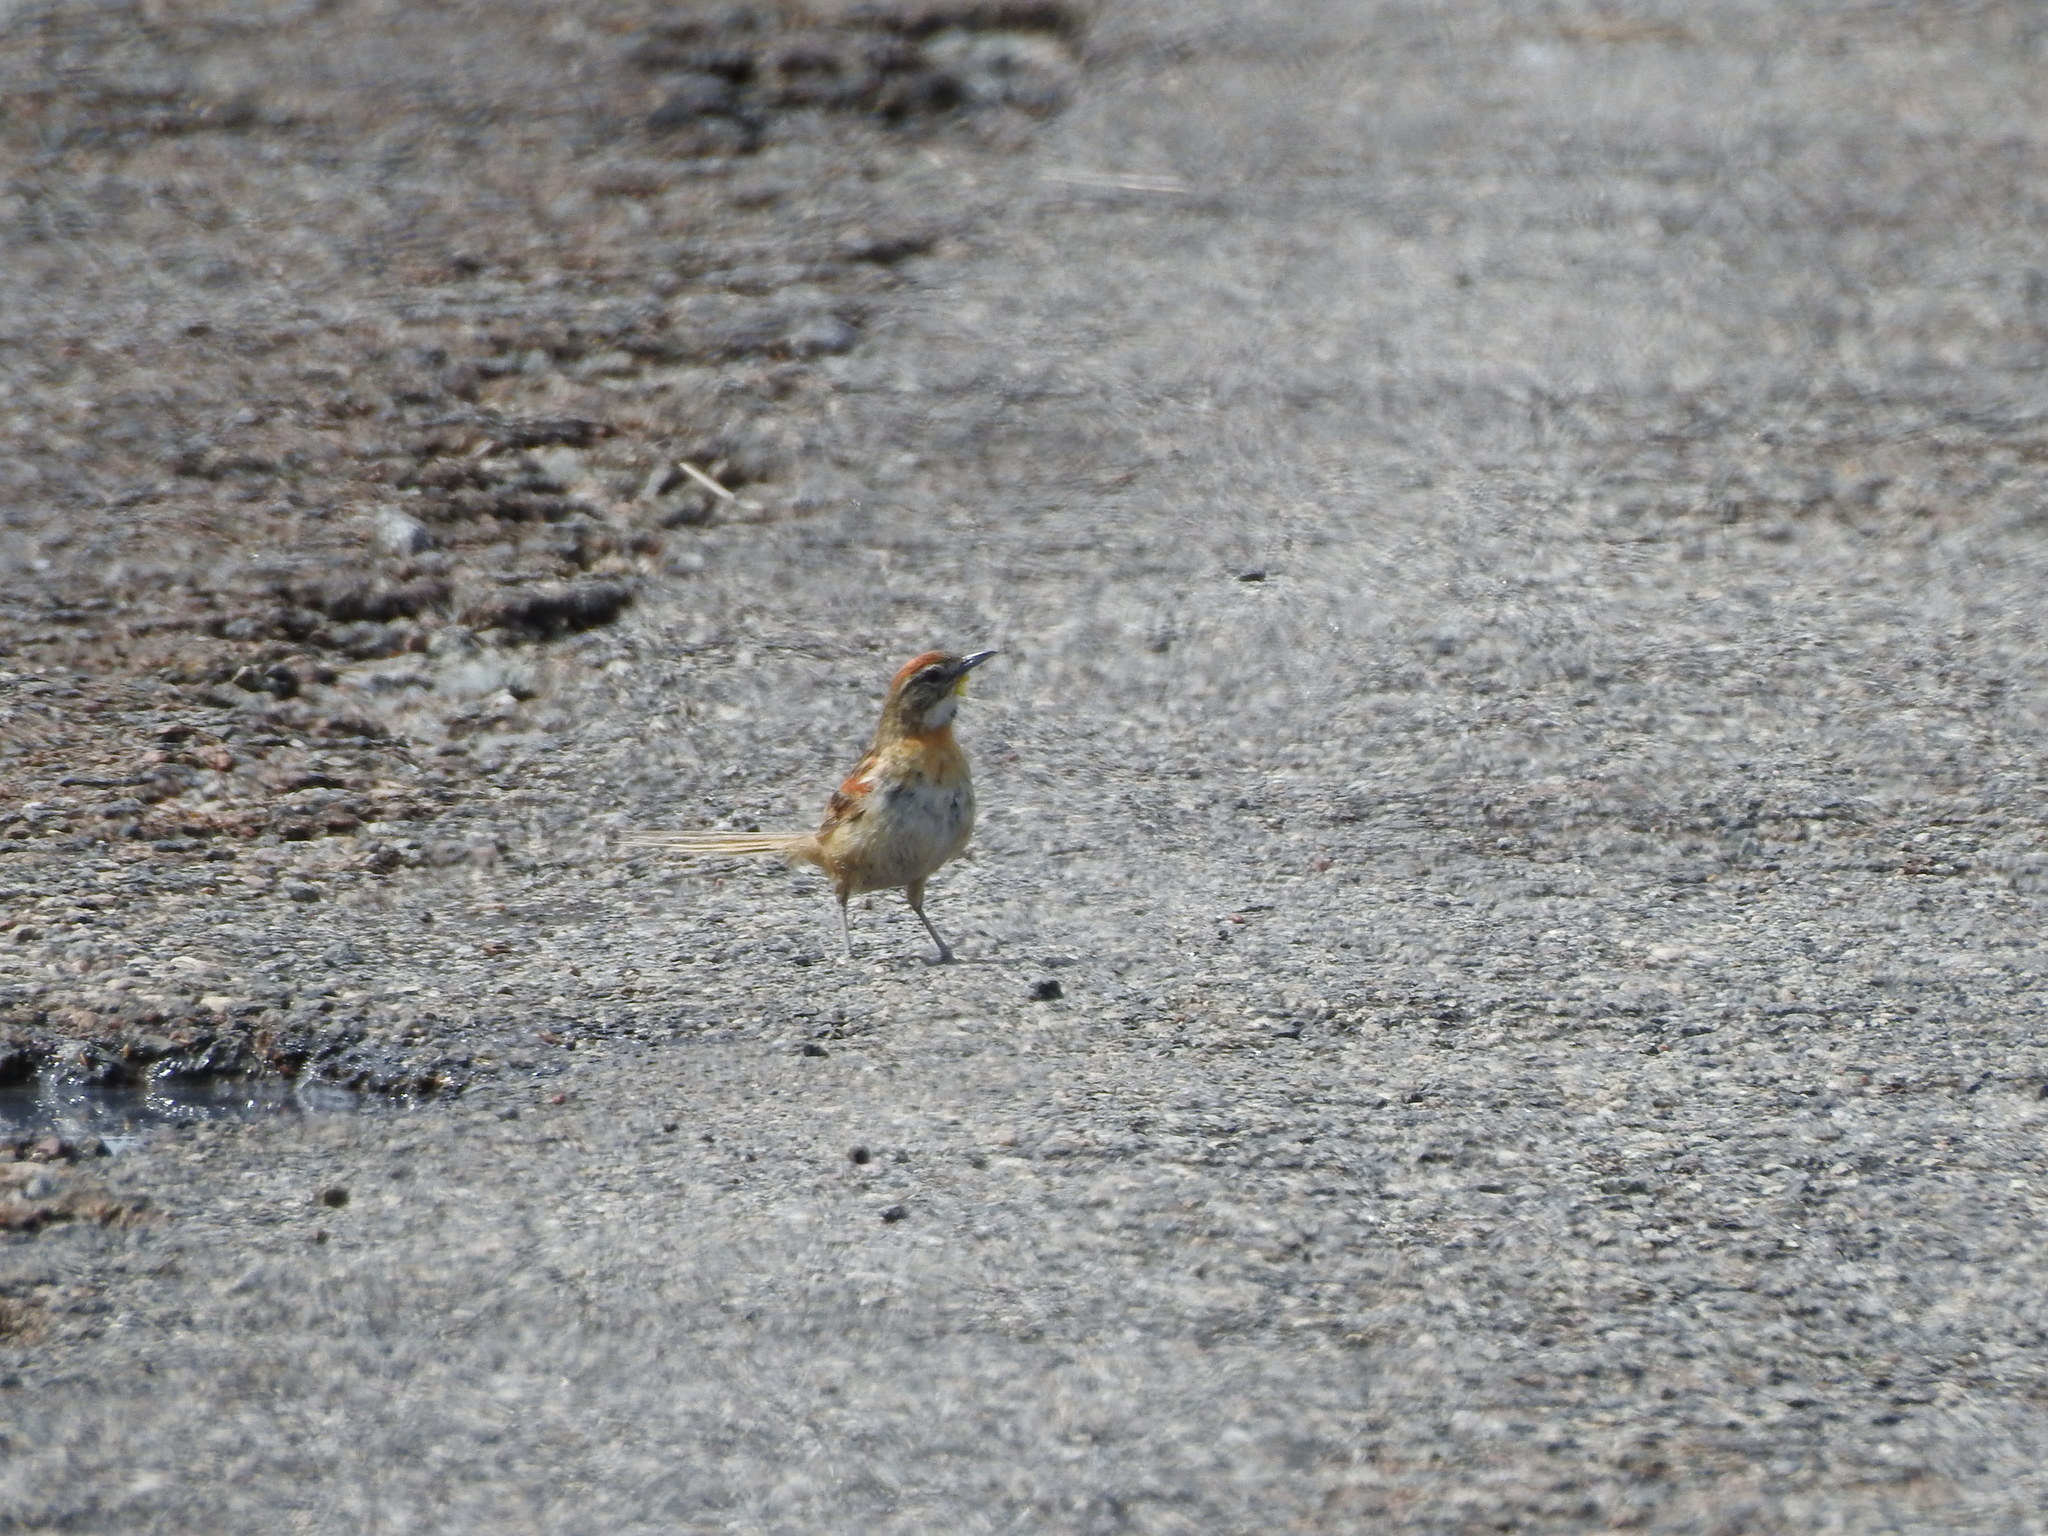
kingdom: Animalia
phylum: Chordata
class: Aves
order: Passeriformes
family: Furnariidae
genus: Schoeniophylax
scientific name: Schoeniophylax phryganophilus
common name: Chotoy spinetail
